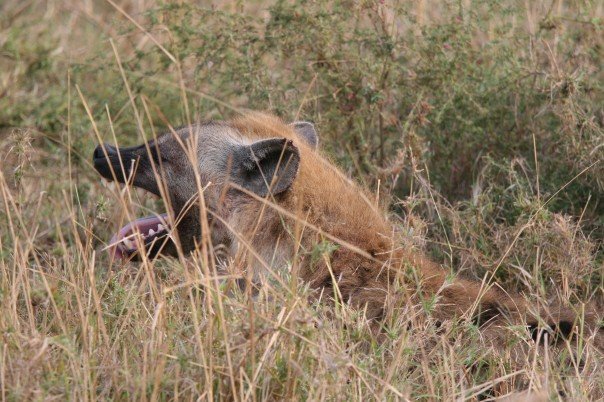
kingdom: Animalia
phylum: Chordata
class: Mammalia
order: Carnivora
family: Hyaenidae
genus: Crocuta
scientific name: Crocuta crocuta
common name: Spotted hyaena
